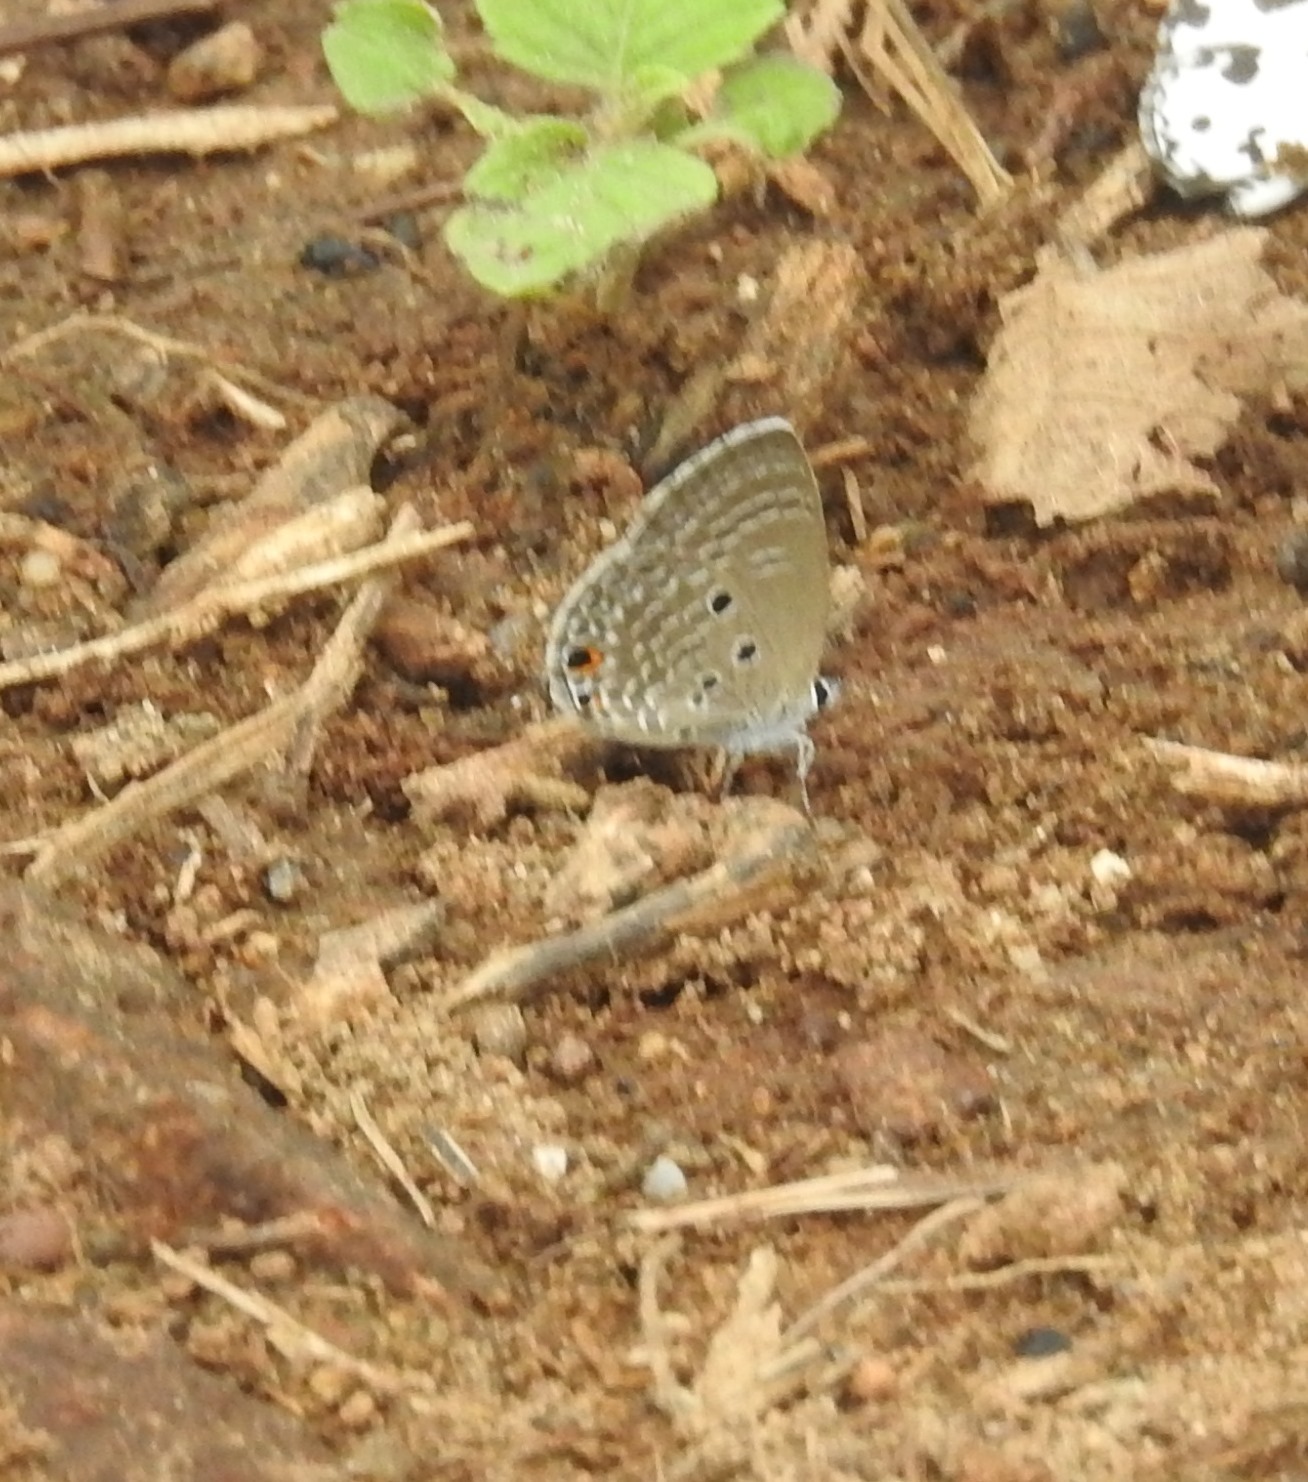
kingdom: Animalia
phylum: Arthropoda
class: Insecta
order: Lepidoptera
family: Lycaenidae
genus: Luthrodes
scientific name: Luthrodes pandava
